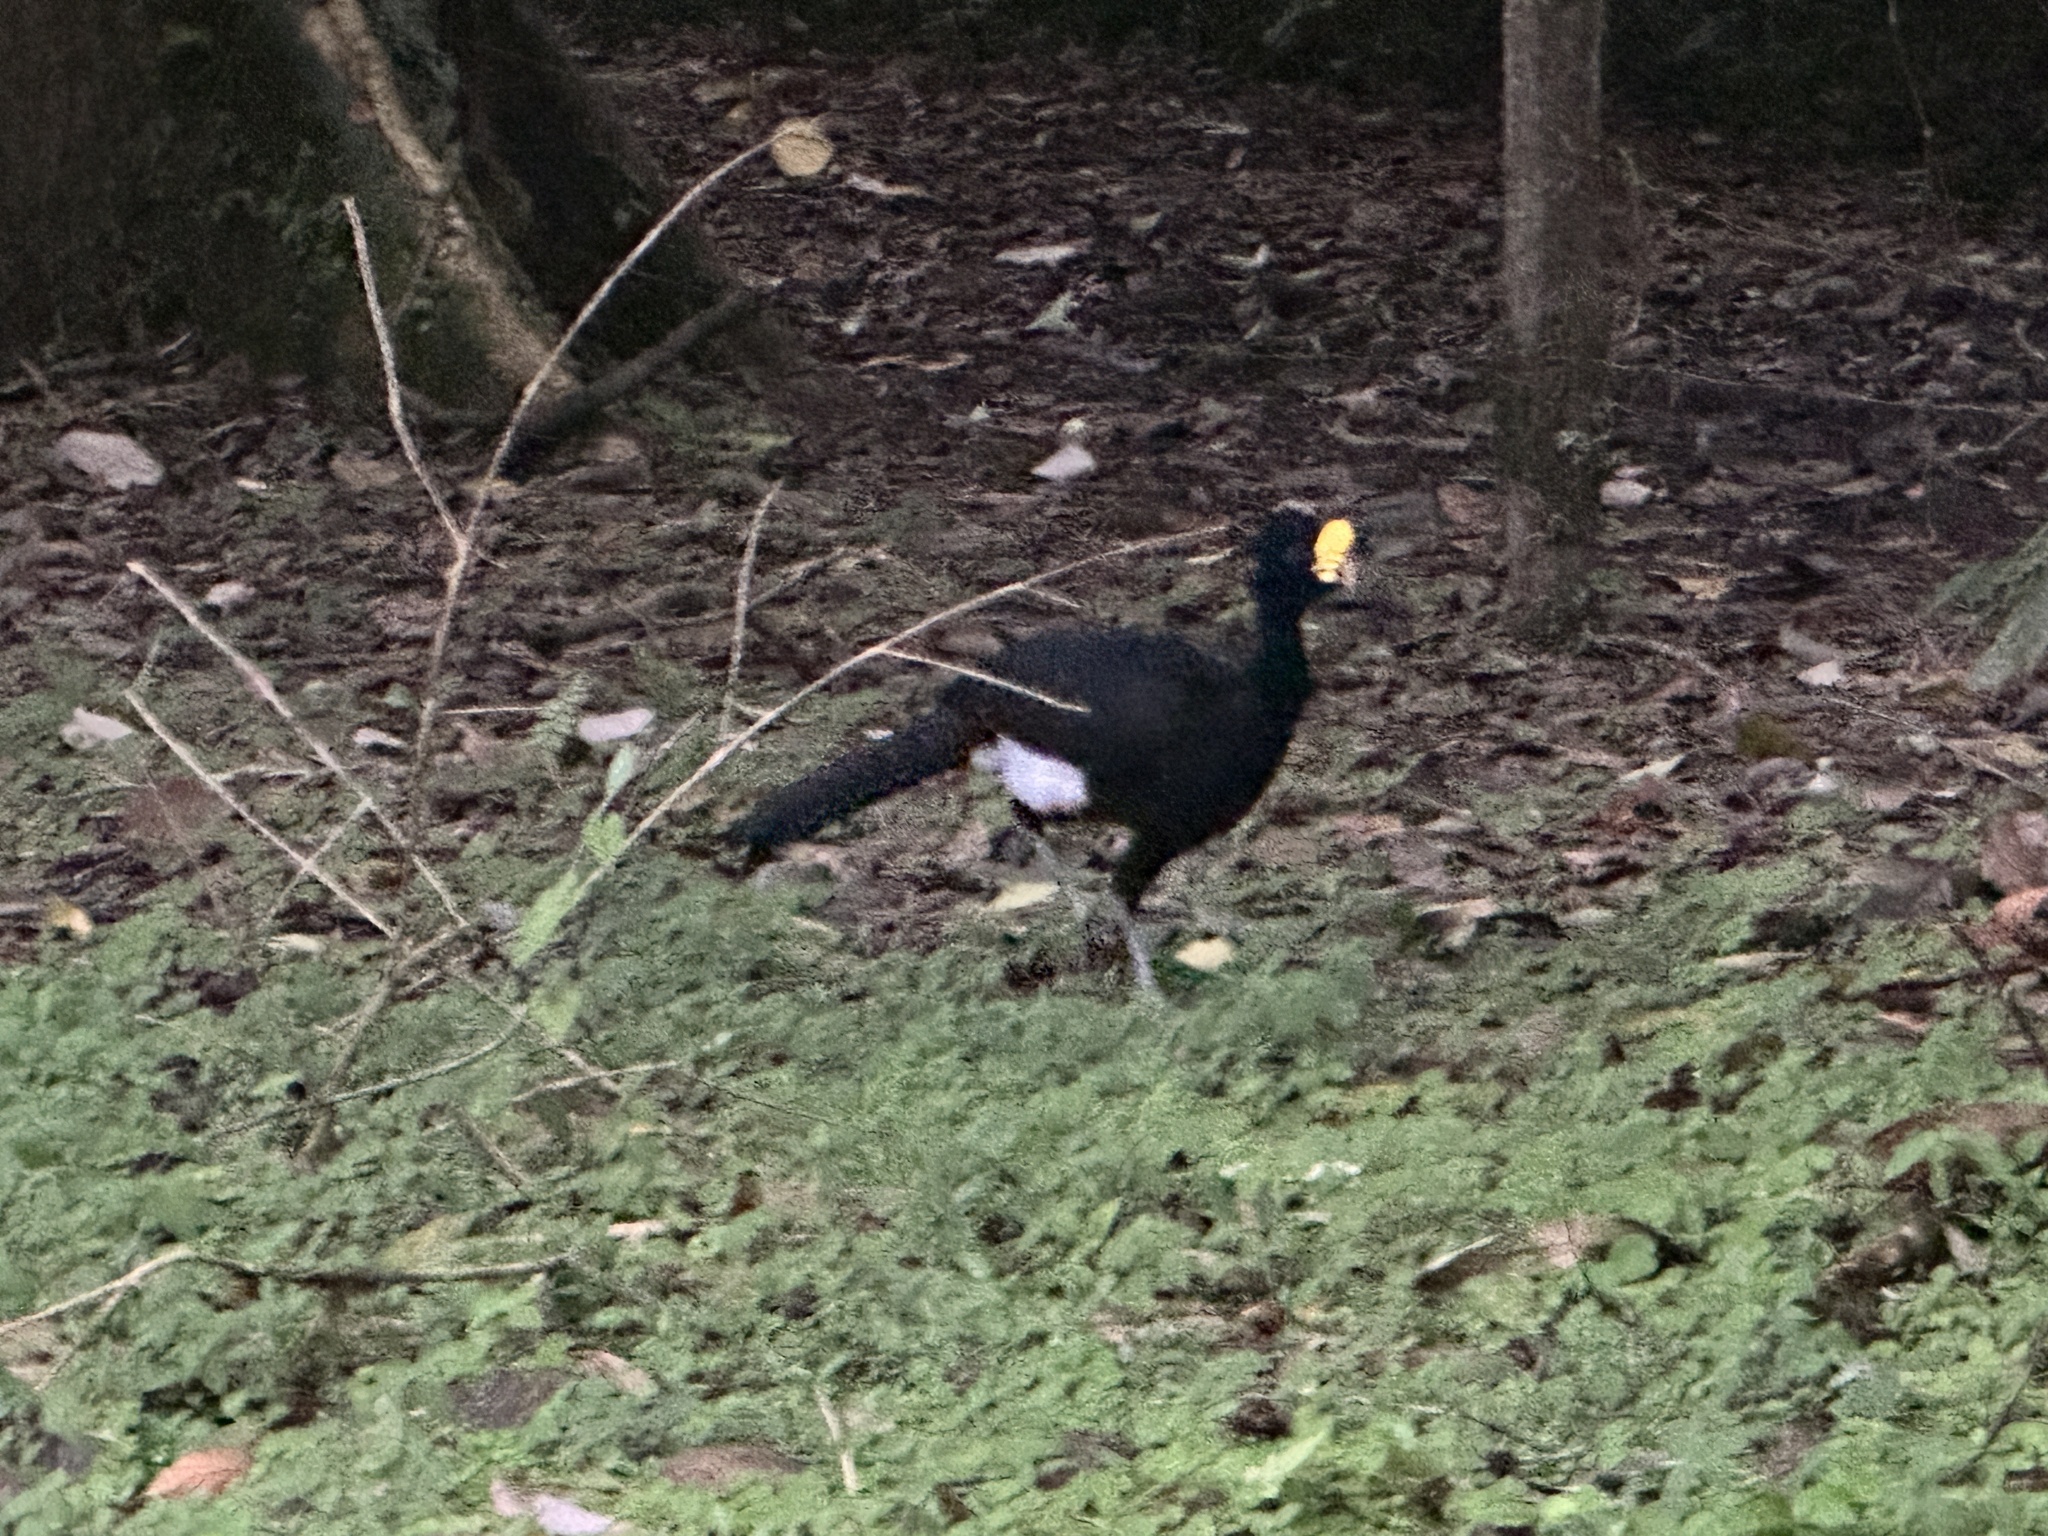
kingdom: Animalia
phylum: Chordata
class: Aves
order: Galliformes
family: Cracidae
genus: Crax
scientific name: Crax rubra
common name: Great curassow
